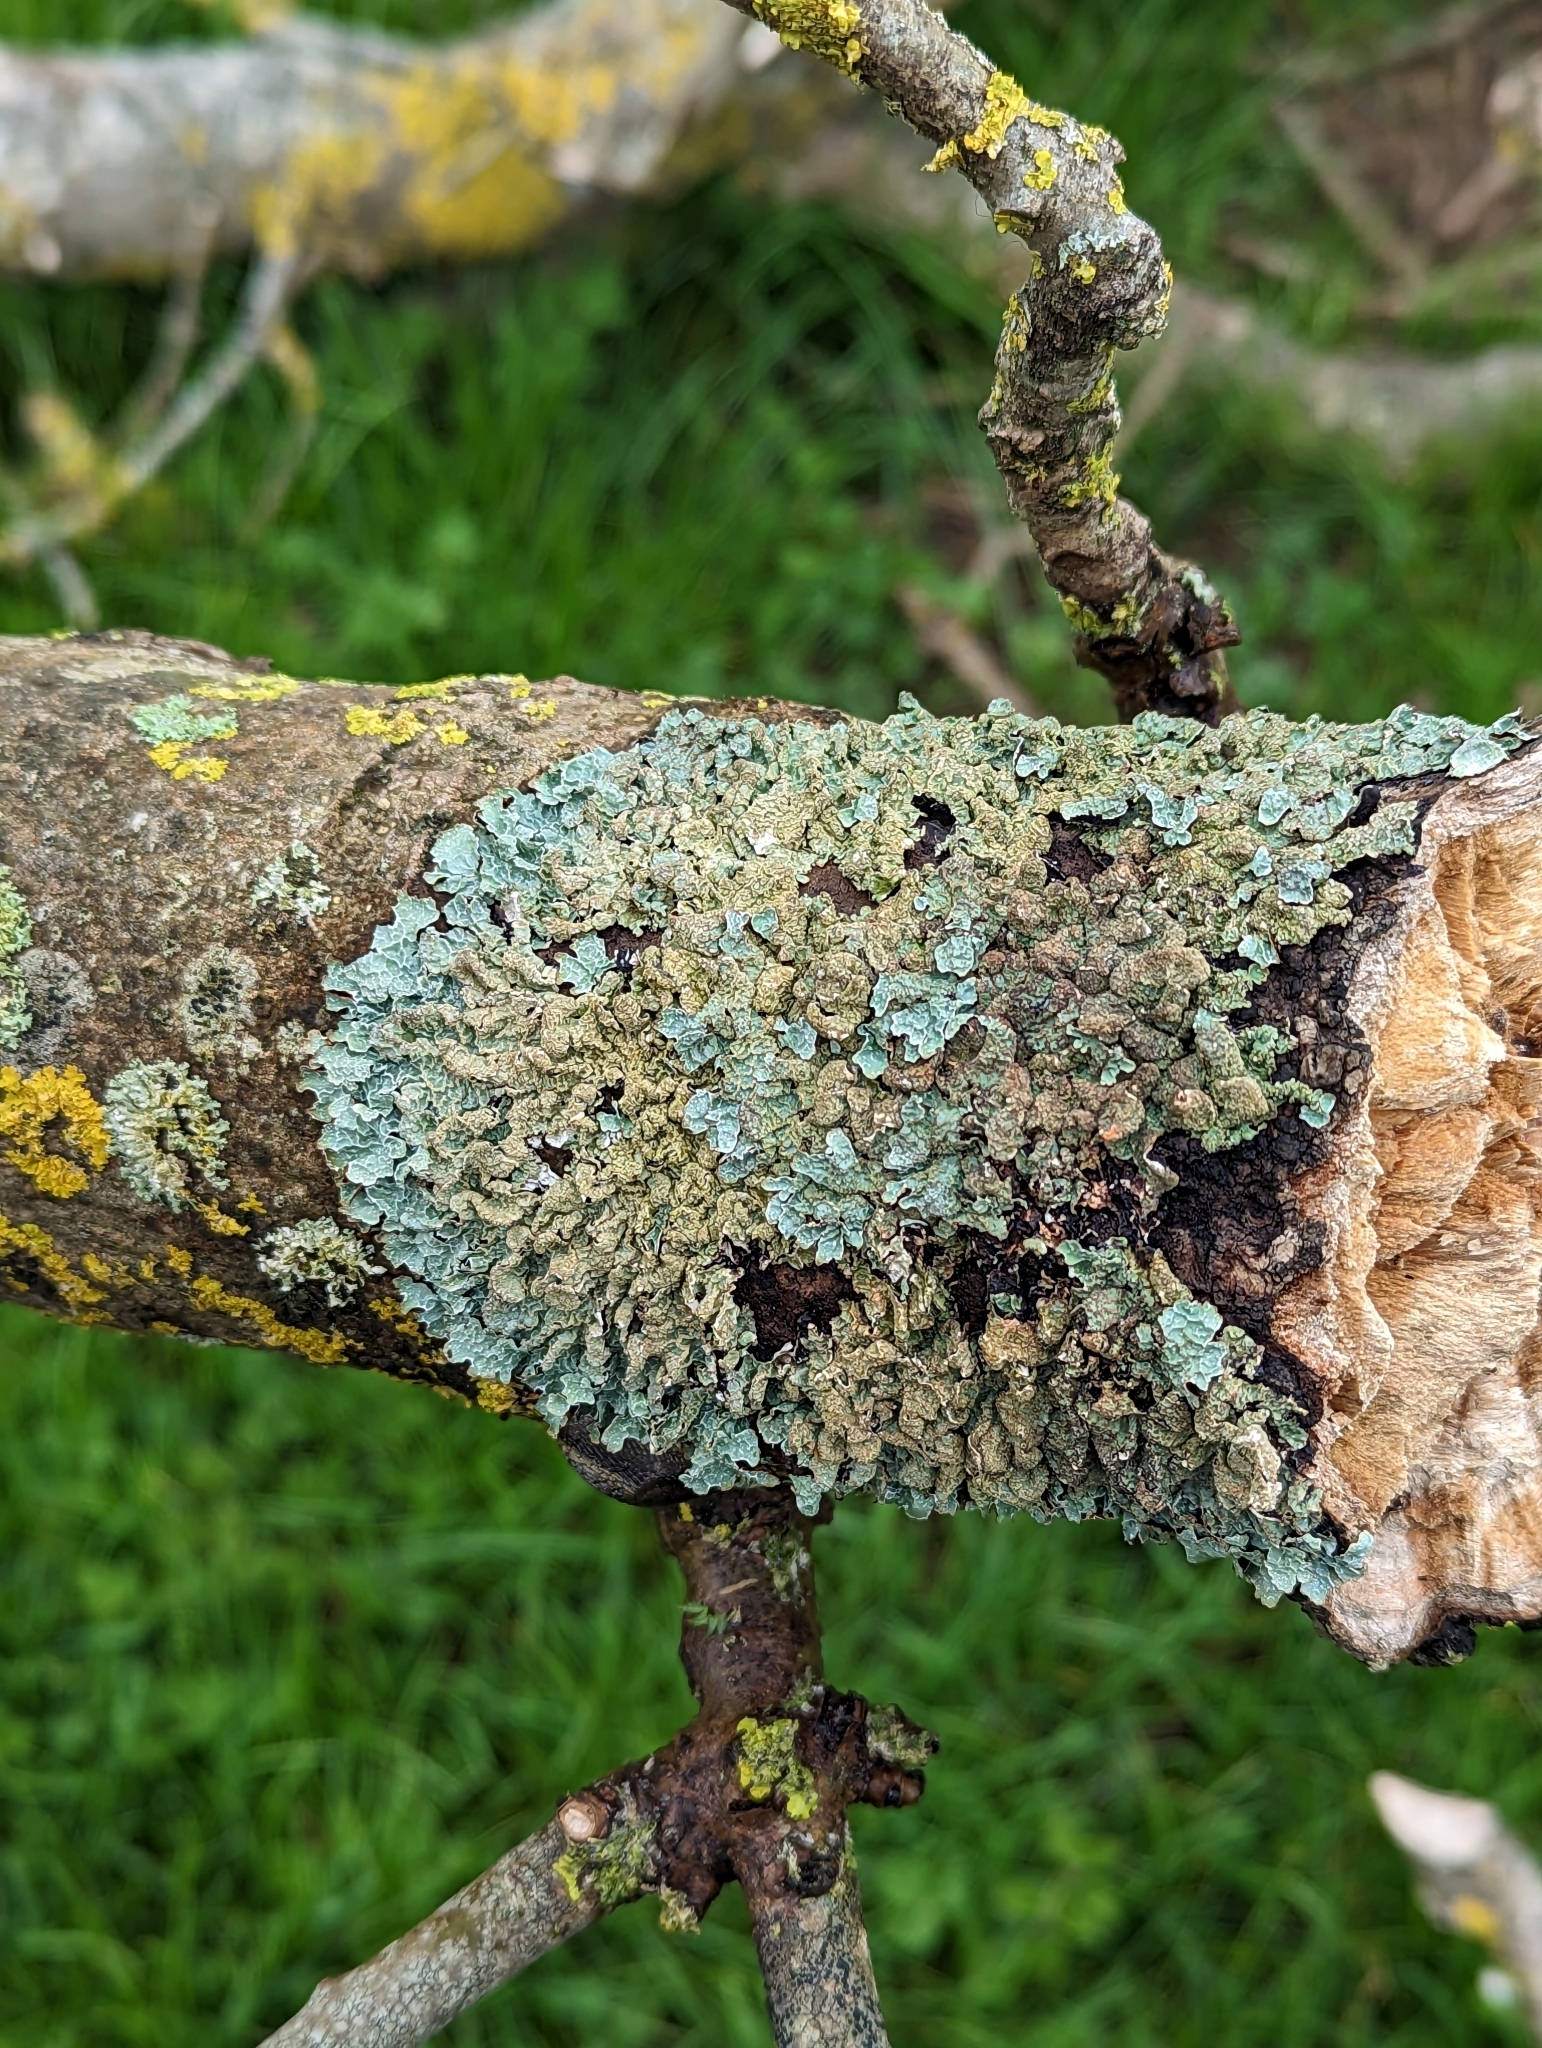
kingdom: Fungi
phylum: Ascomycota
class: Lecanoromycetes
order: Lecanorales
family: Parmeliaceae
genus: Parmelia
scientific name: Parmelia sulcata
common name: Netted shield lichen
